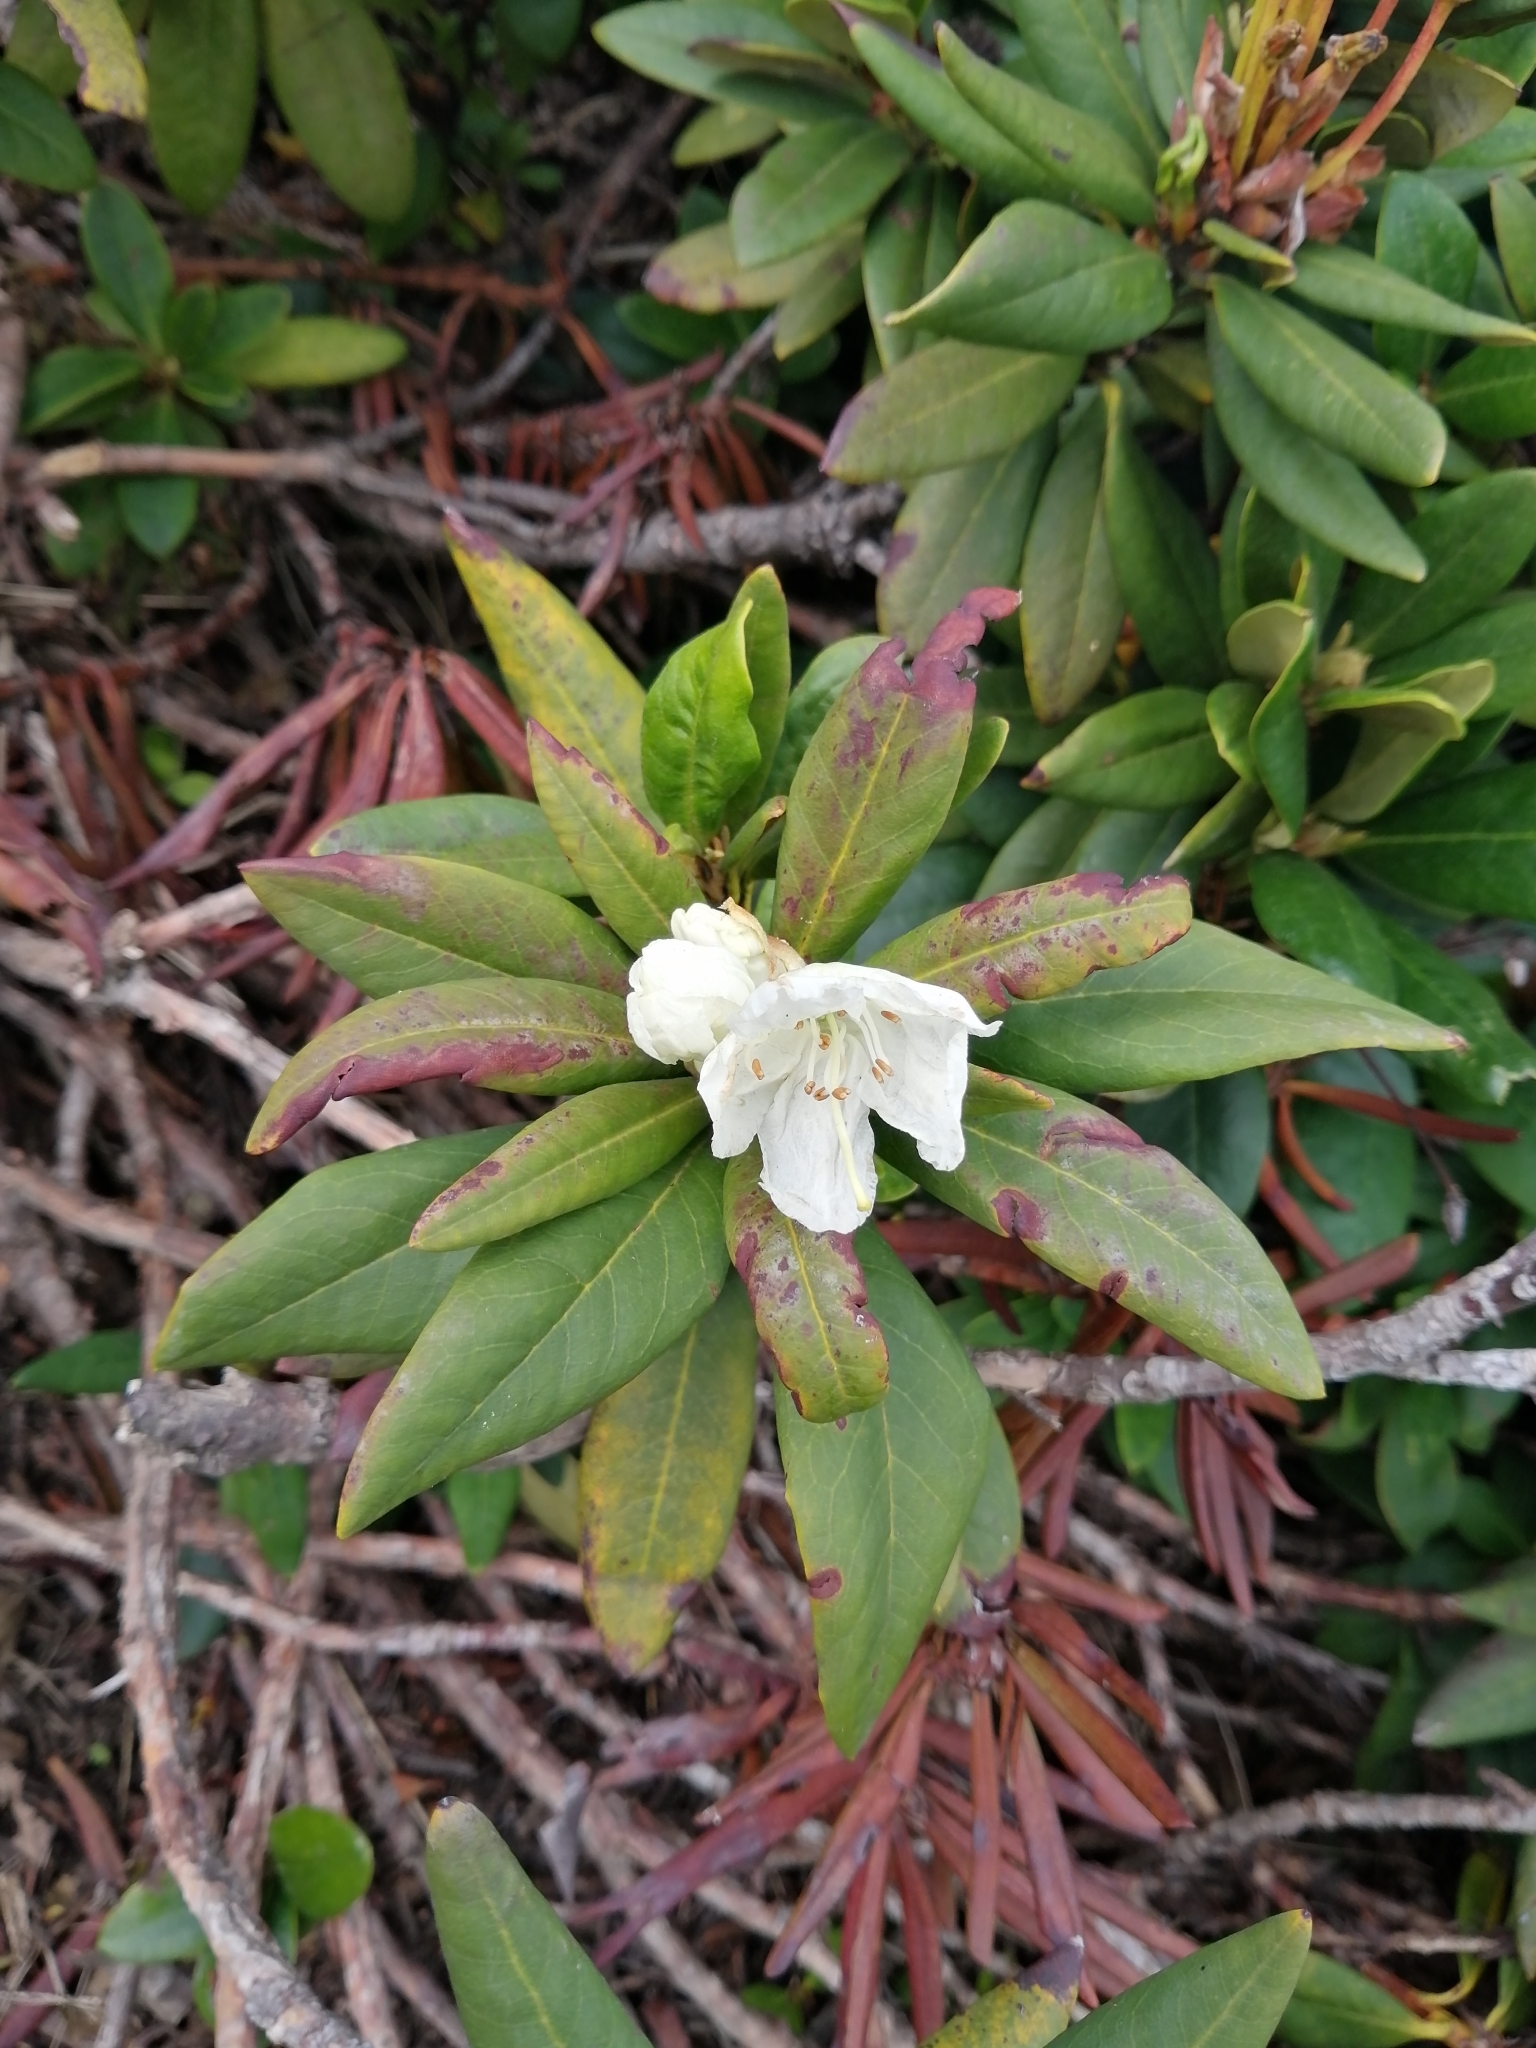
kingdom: Plantae
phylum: Tracheophyta
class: Magnoliopsida
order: Ericales
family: Ericaceae
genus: Rhododendron
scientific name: Rhododendron caucasicum
